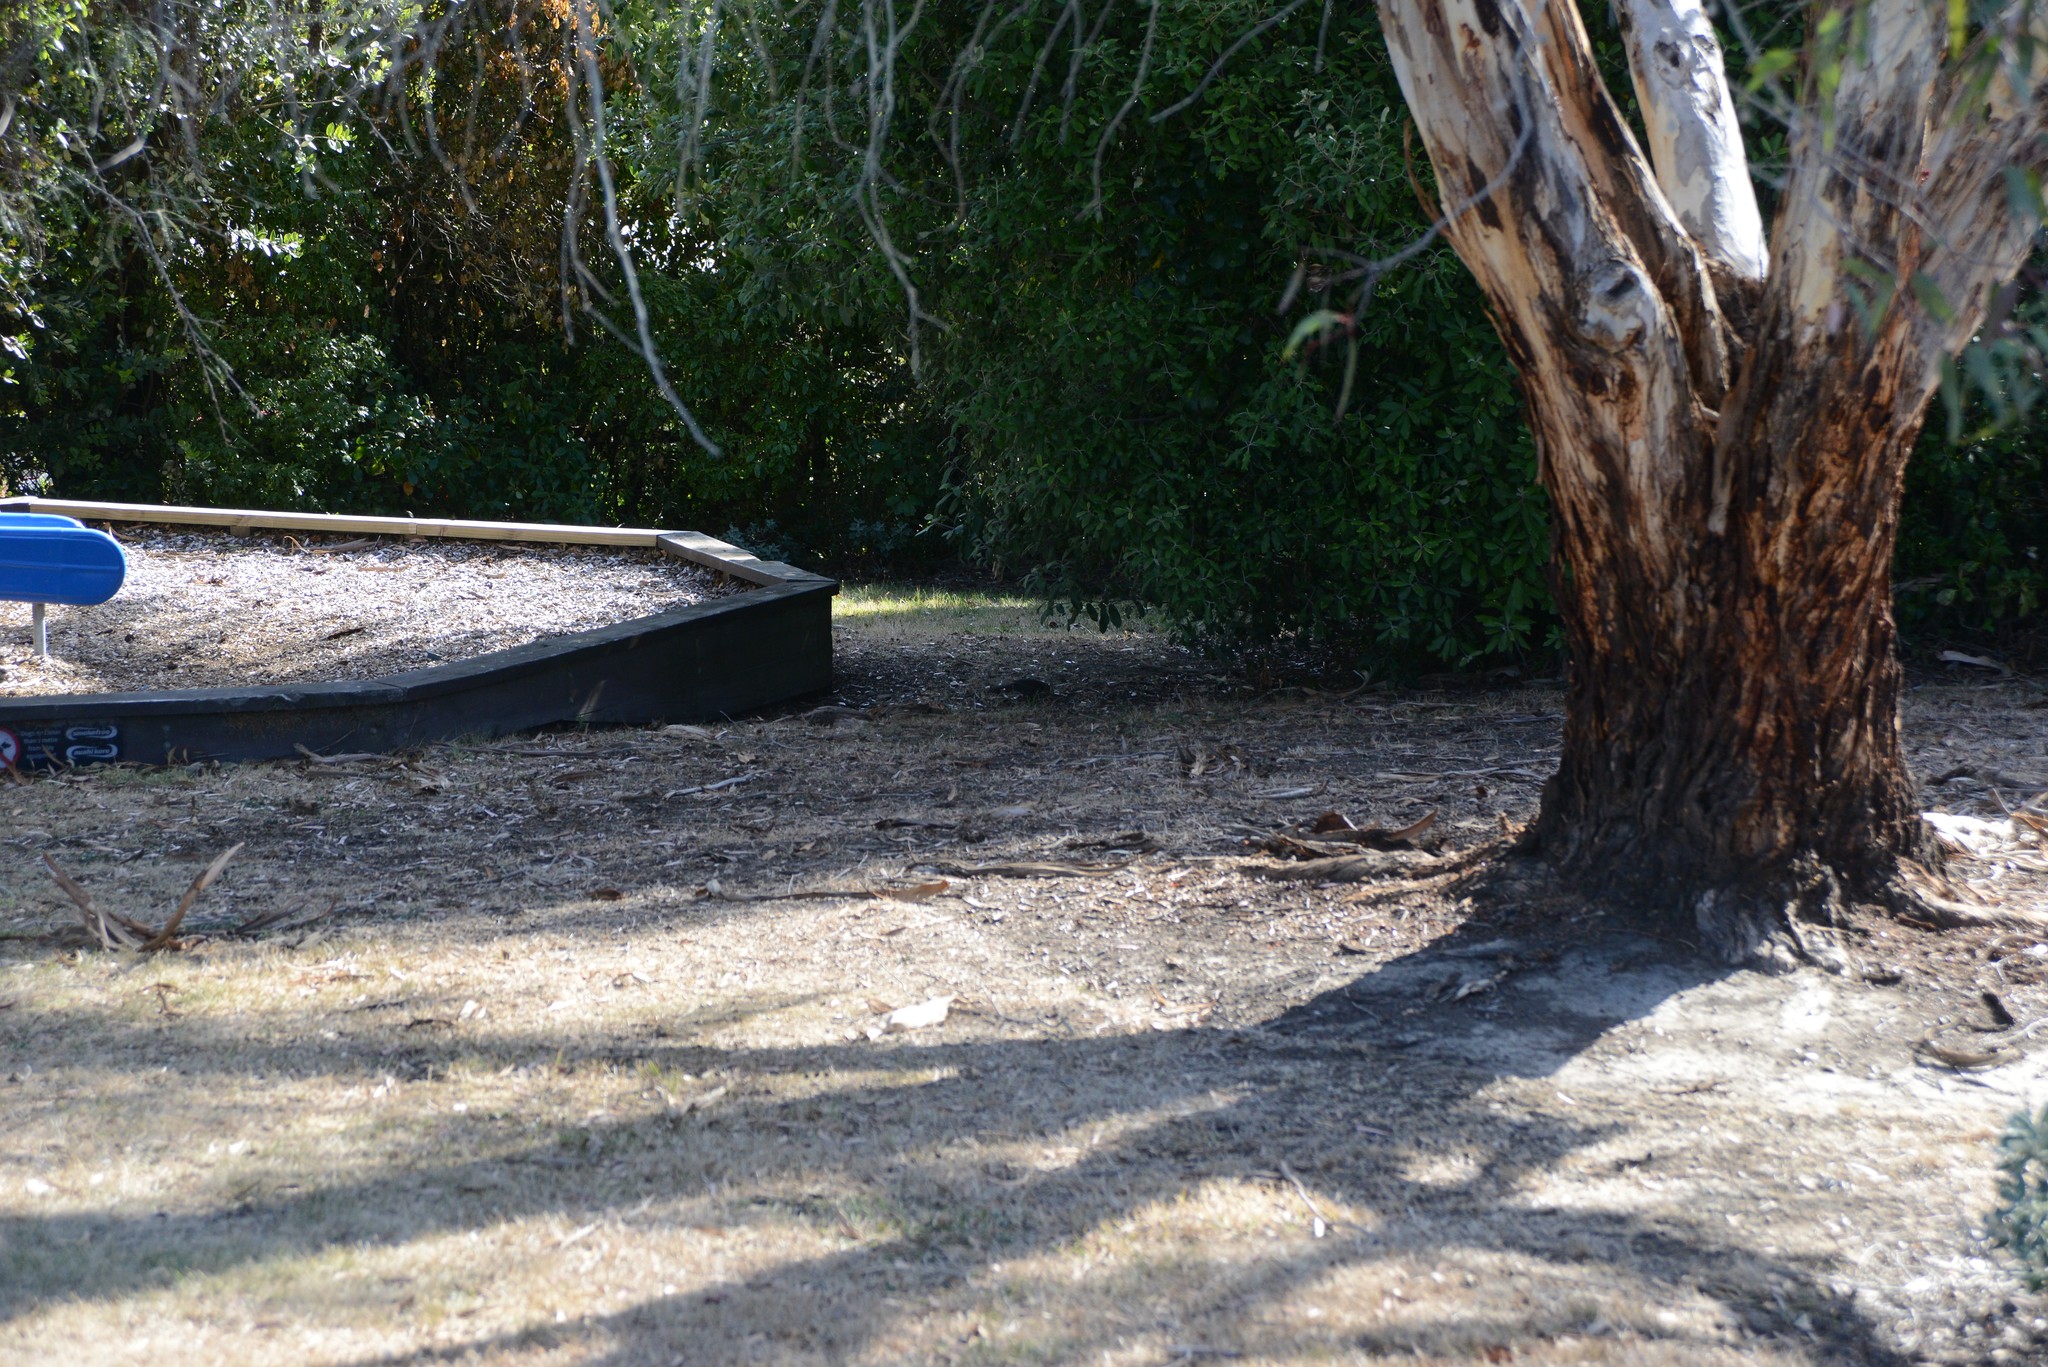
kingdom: Animalia
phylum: Chordata
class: Aves
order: Passeriformes
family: Turdidae
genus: Turdus
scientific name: Turdus merula
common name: Common blackbird
